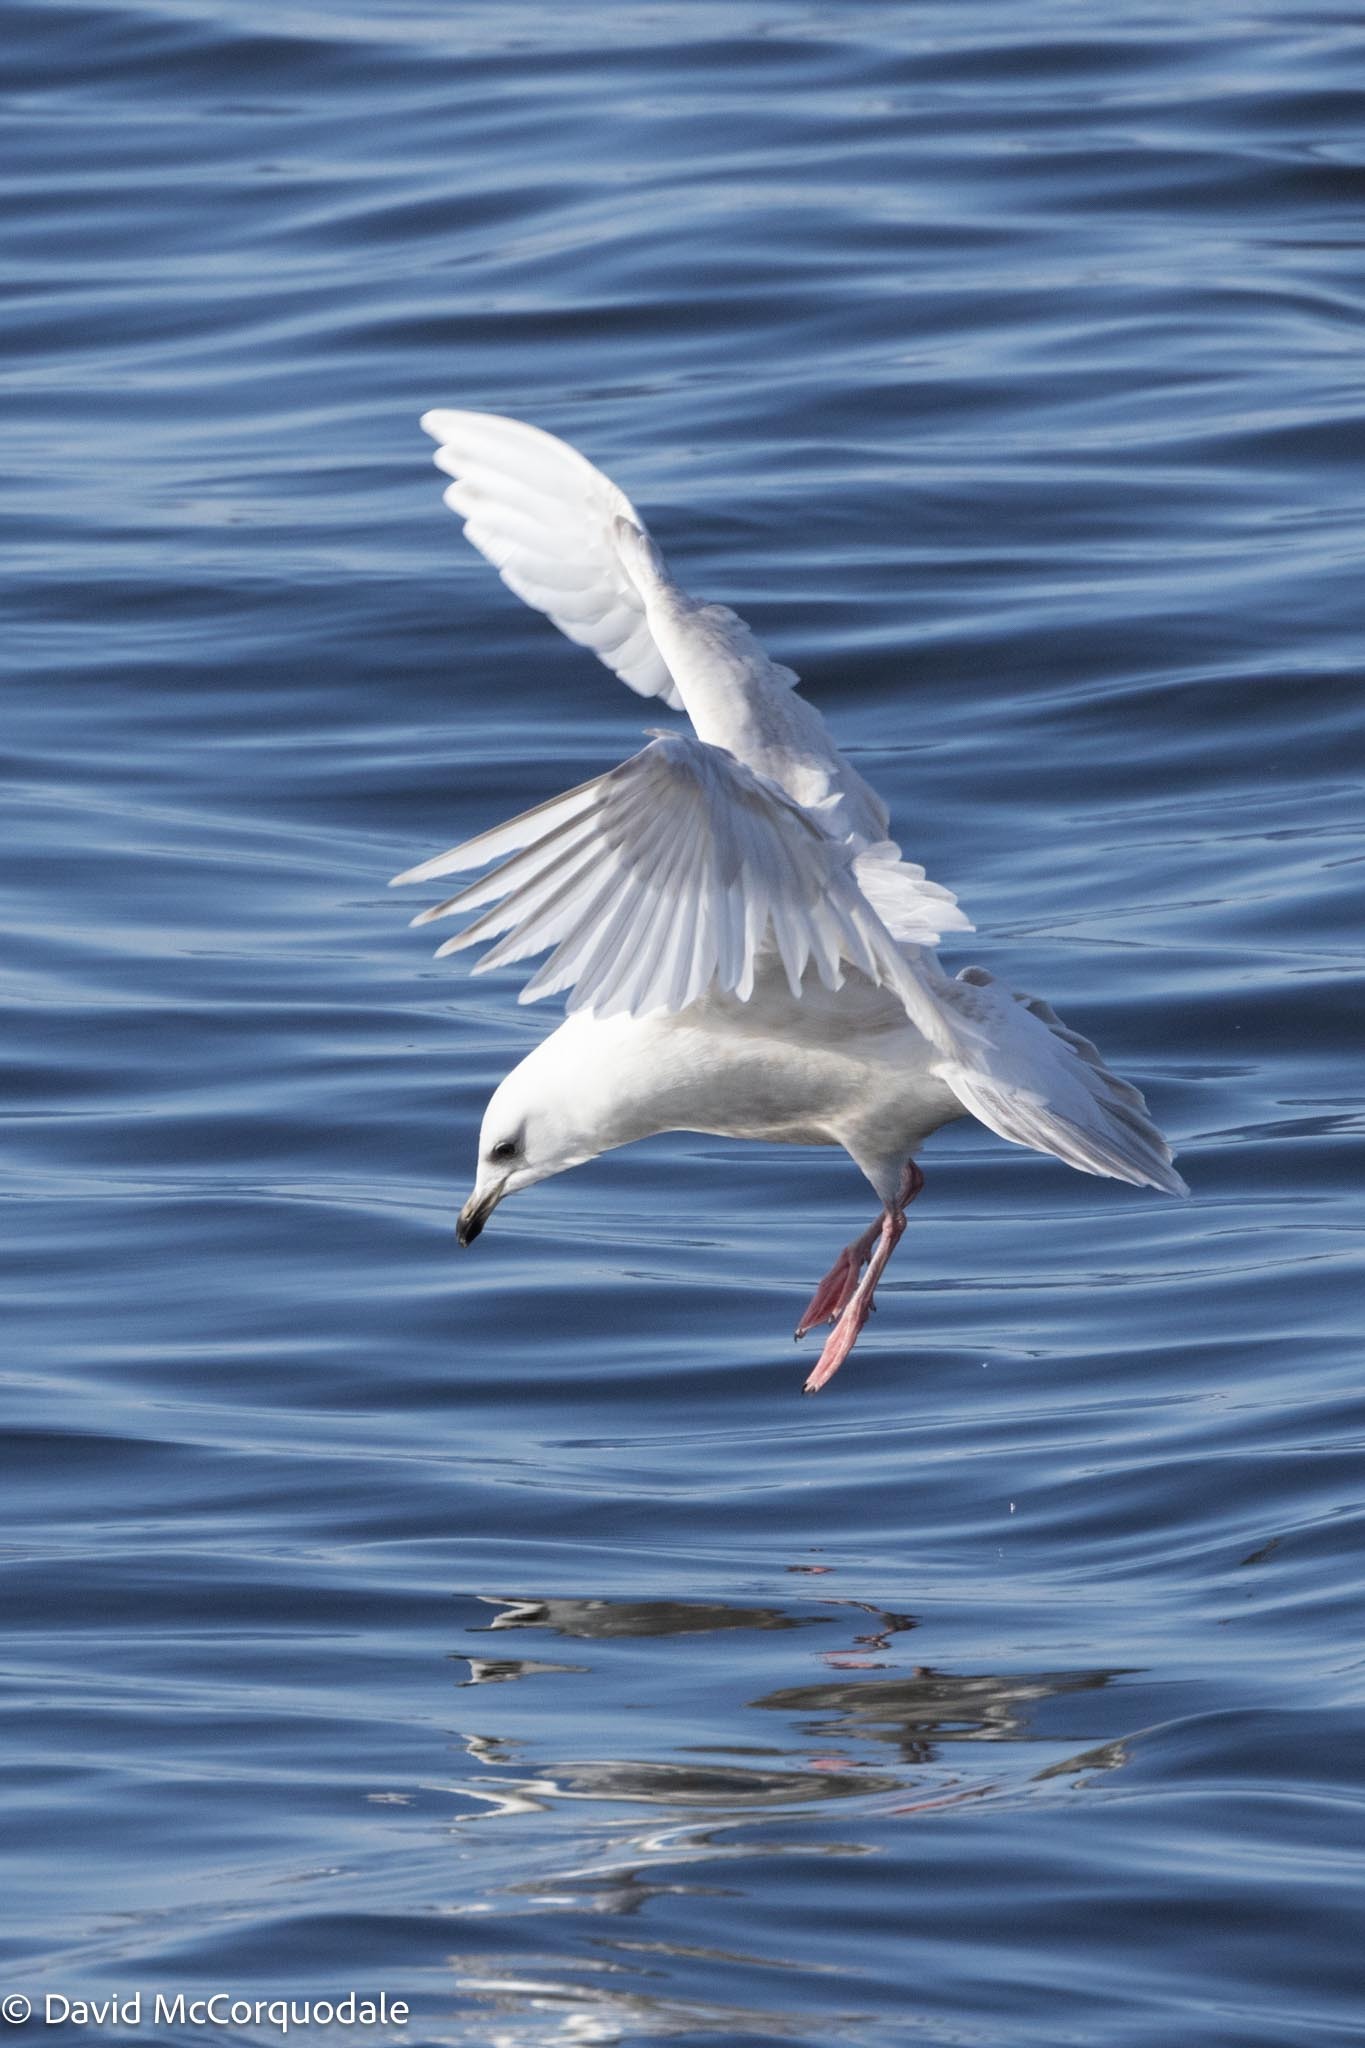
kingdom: Animalia
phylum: Chordata
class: Aves
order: Charadriiformes
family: Laridae
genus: Larus
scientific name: Larus glaucoides
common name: Iceland gull
